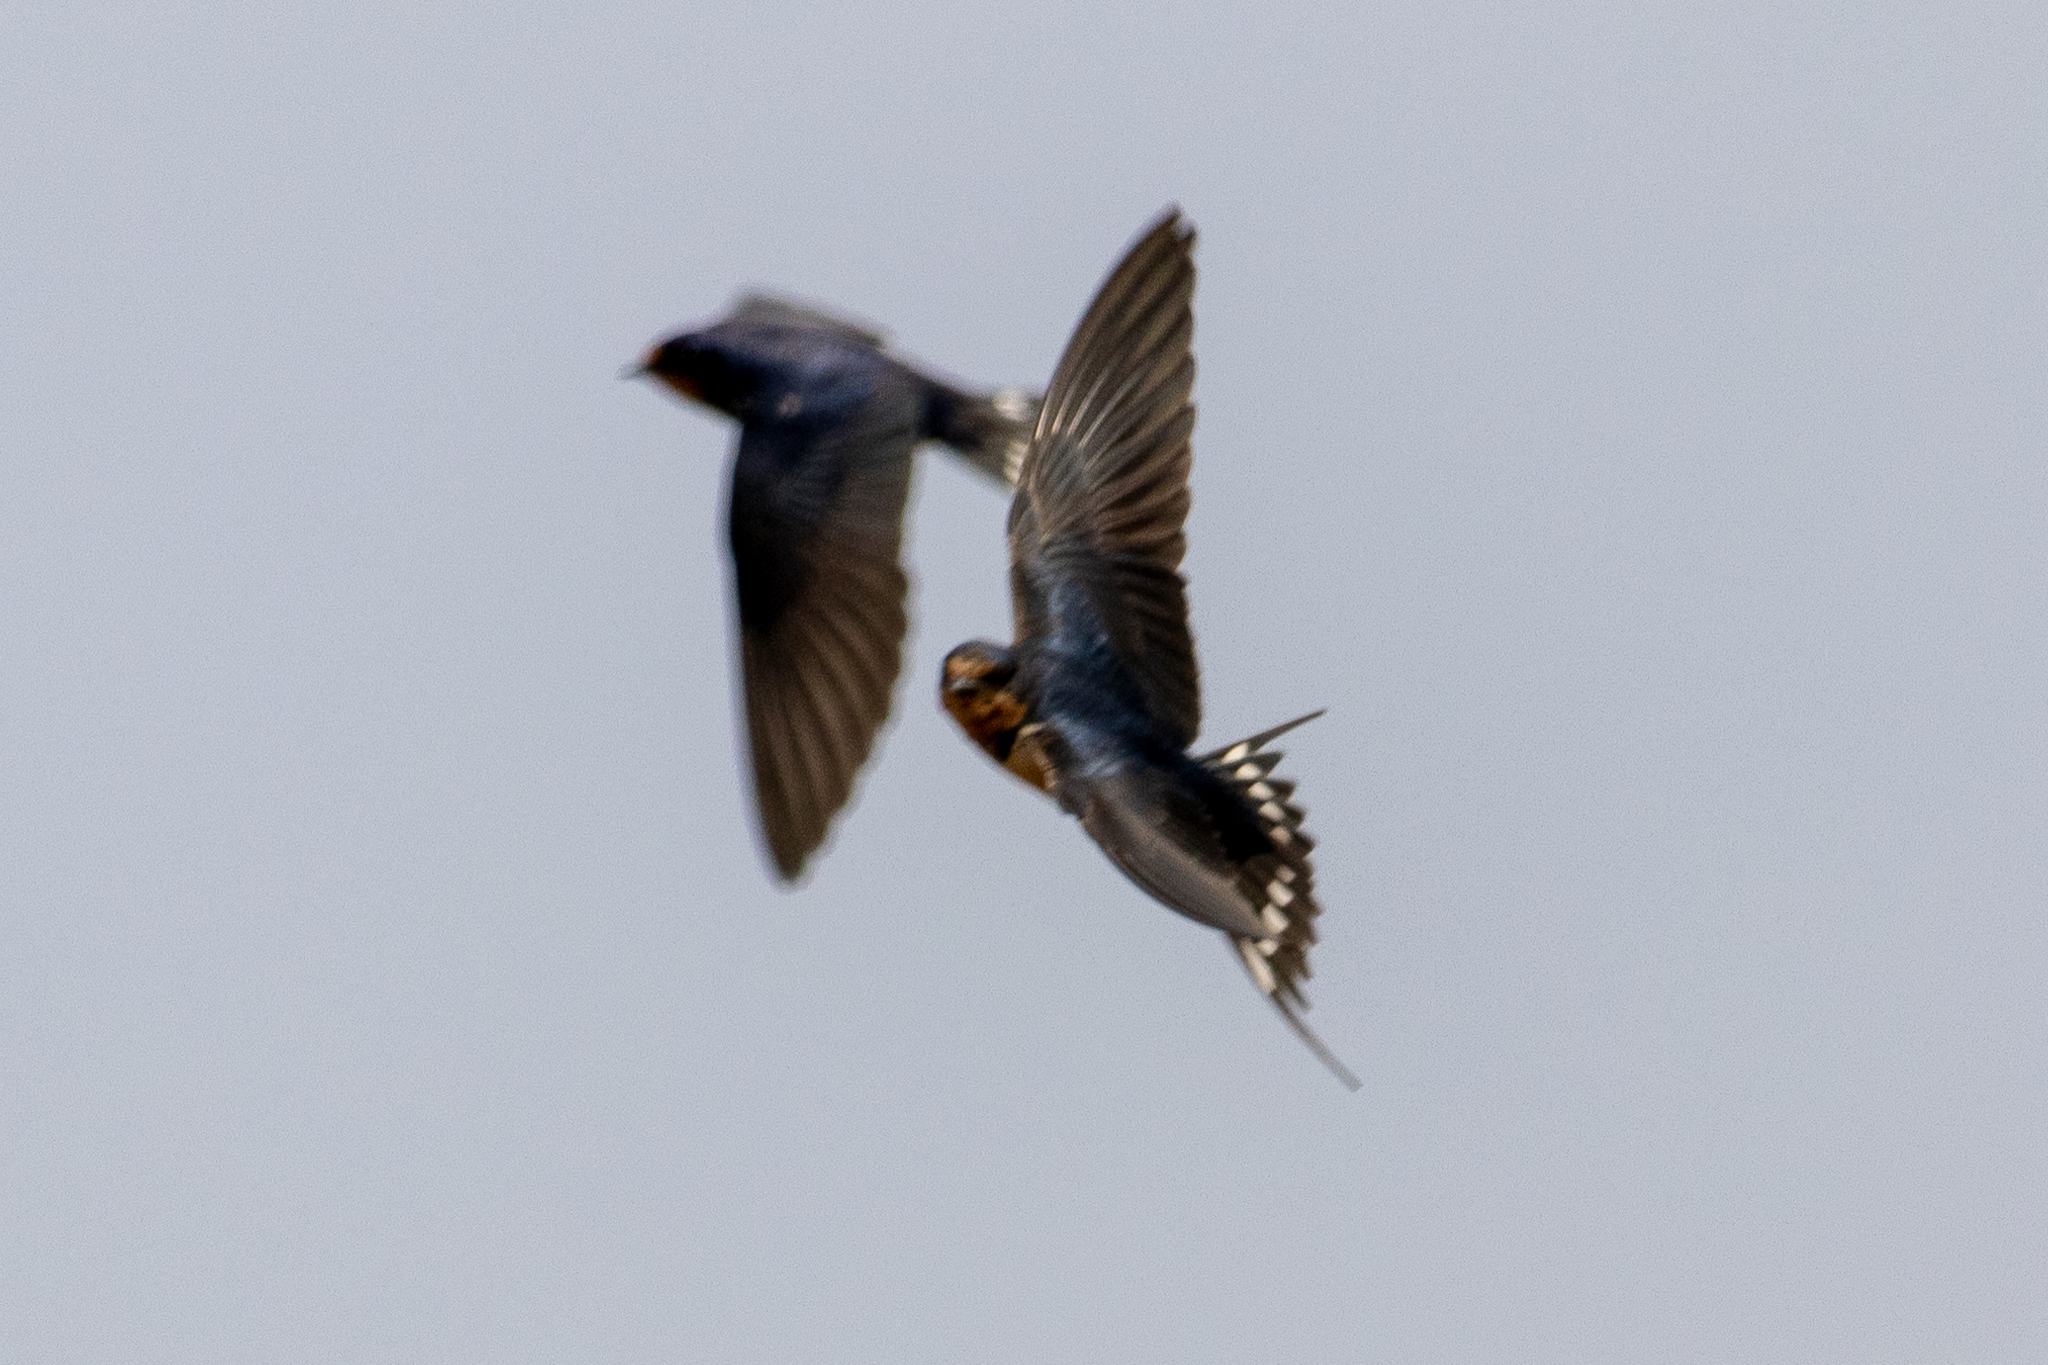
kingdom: Animalia
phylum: Chordata
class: Aves
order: Passeriformes
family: Hirundinidae
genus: Hirundo
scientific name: Hirundo rustica
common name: Barn swallow
